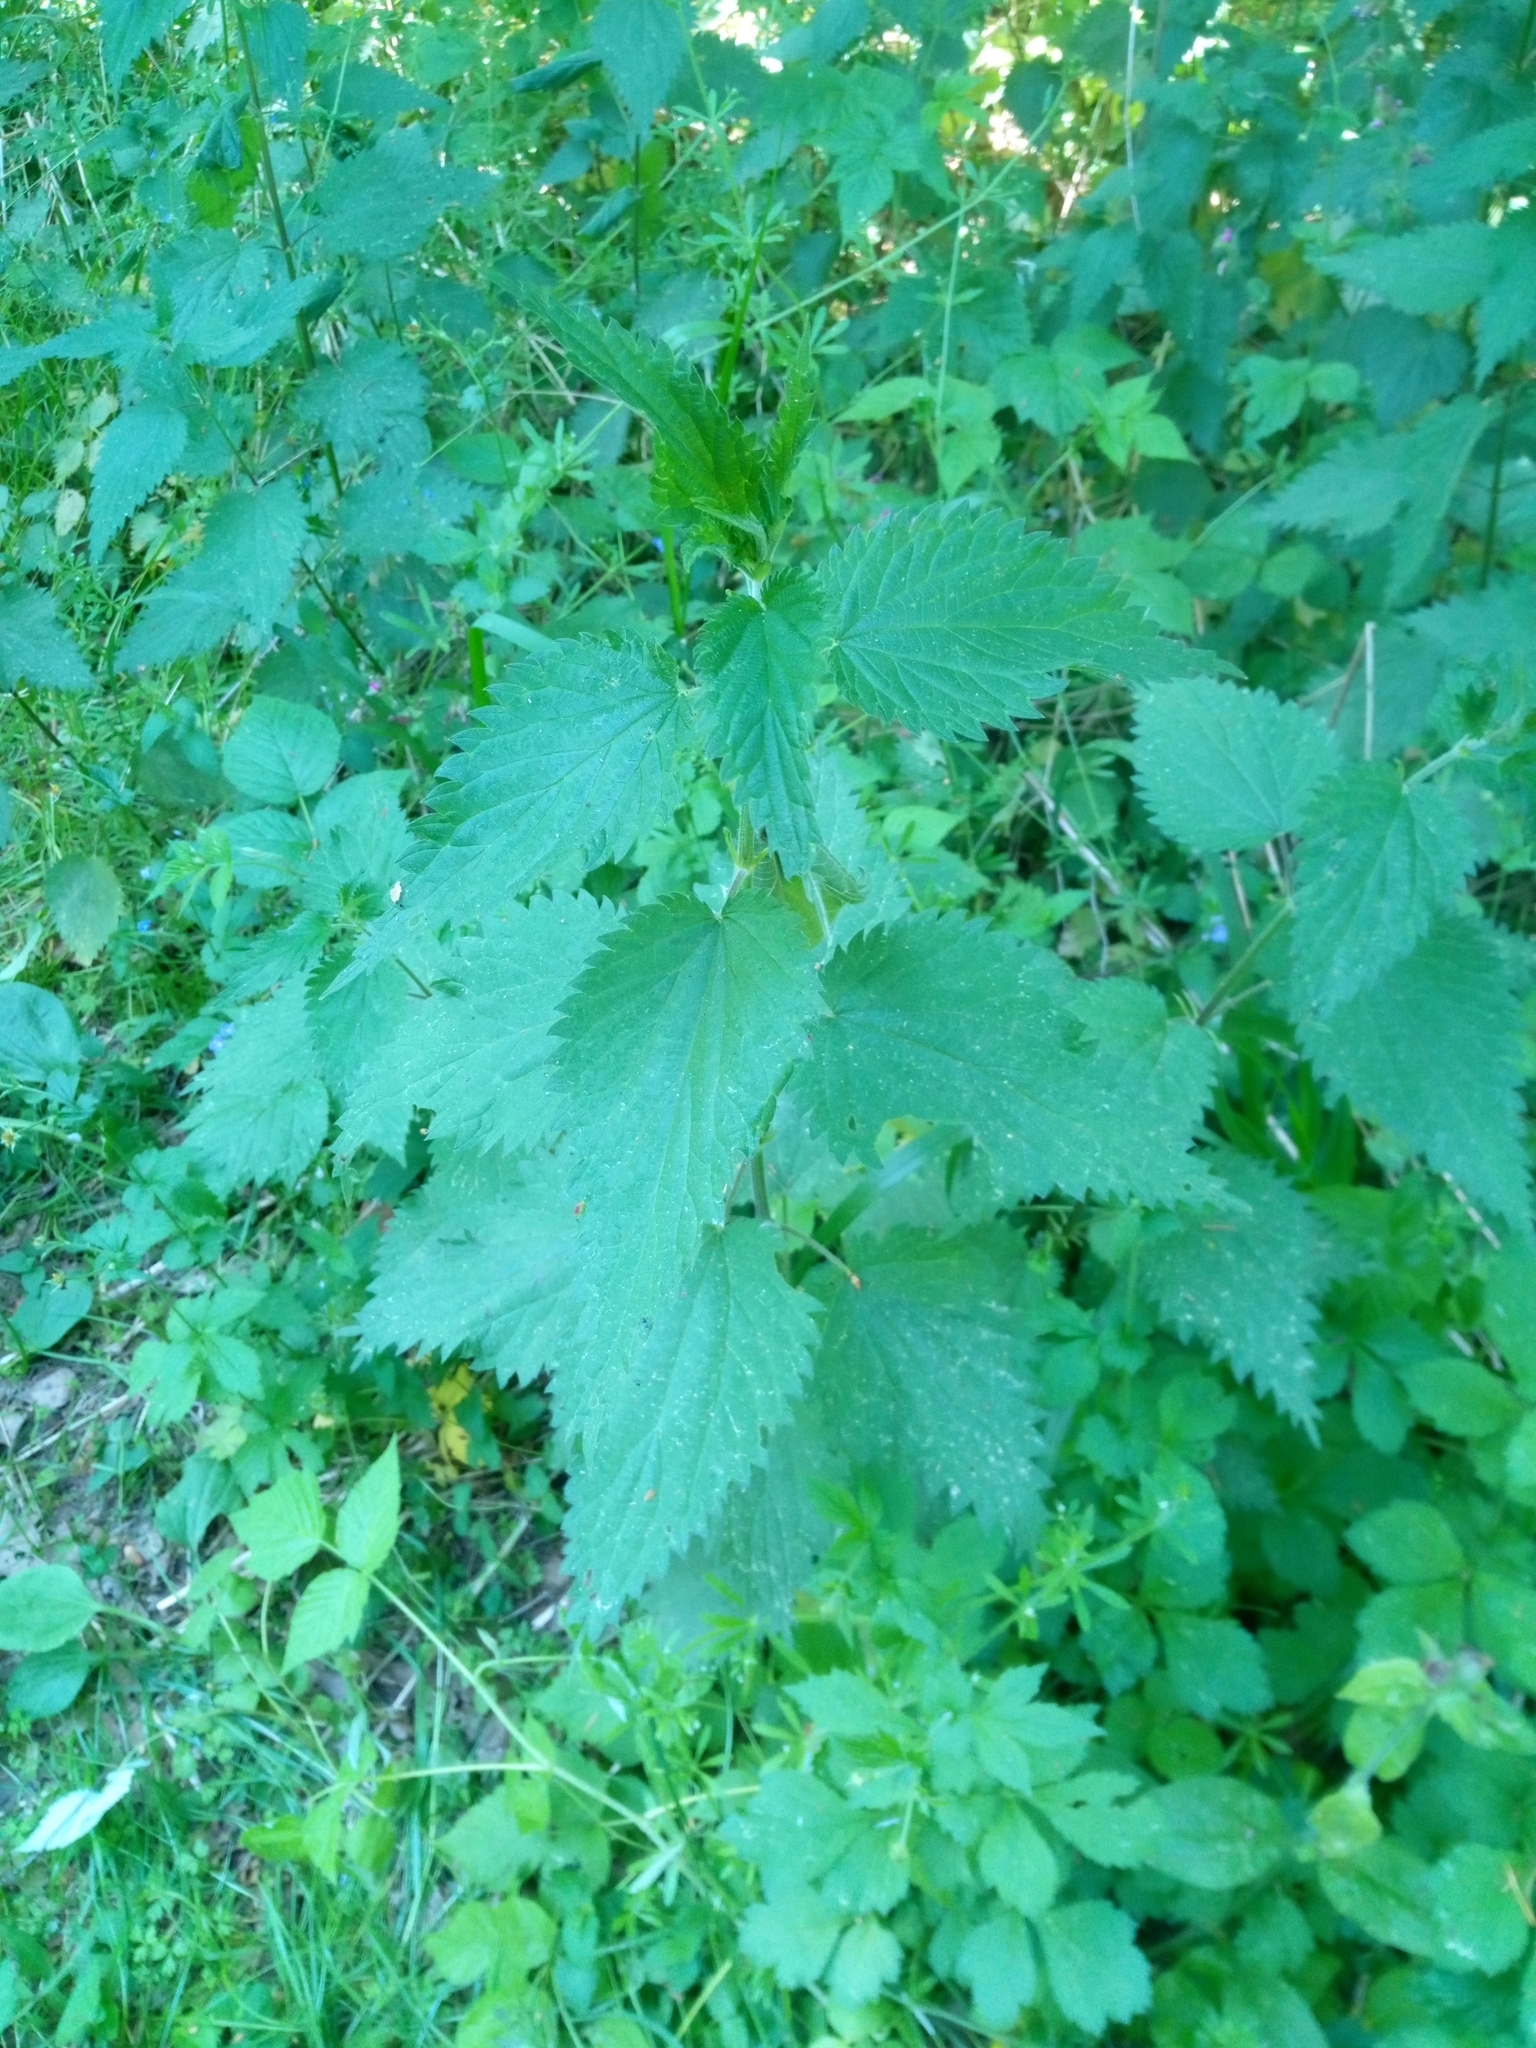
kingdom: Plantae
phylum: Tracheophyta
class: Magnoliopsida
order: Rosales
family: Urticaceae
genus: Urtica
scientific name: Urtica dioica
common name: Common nettle
